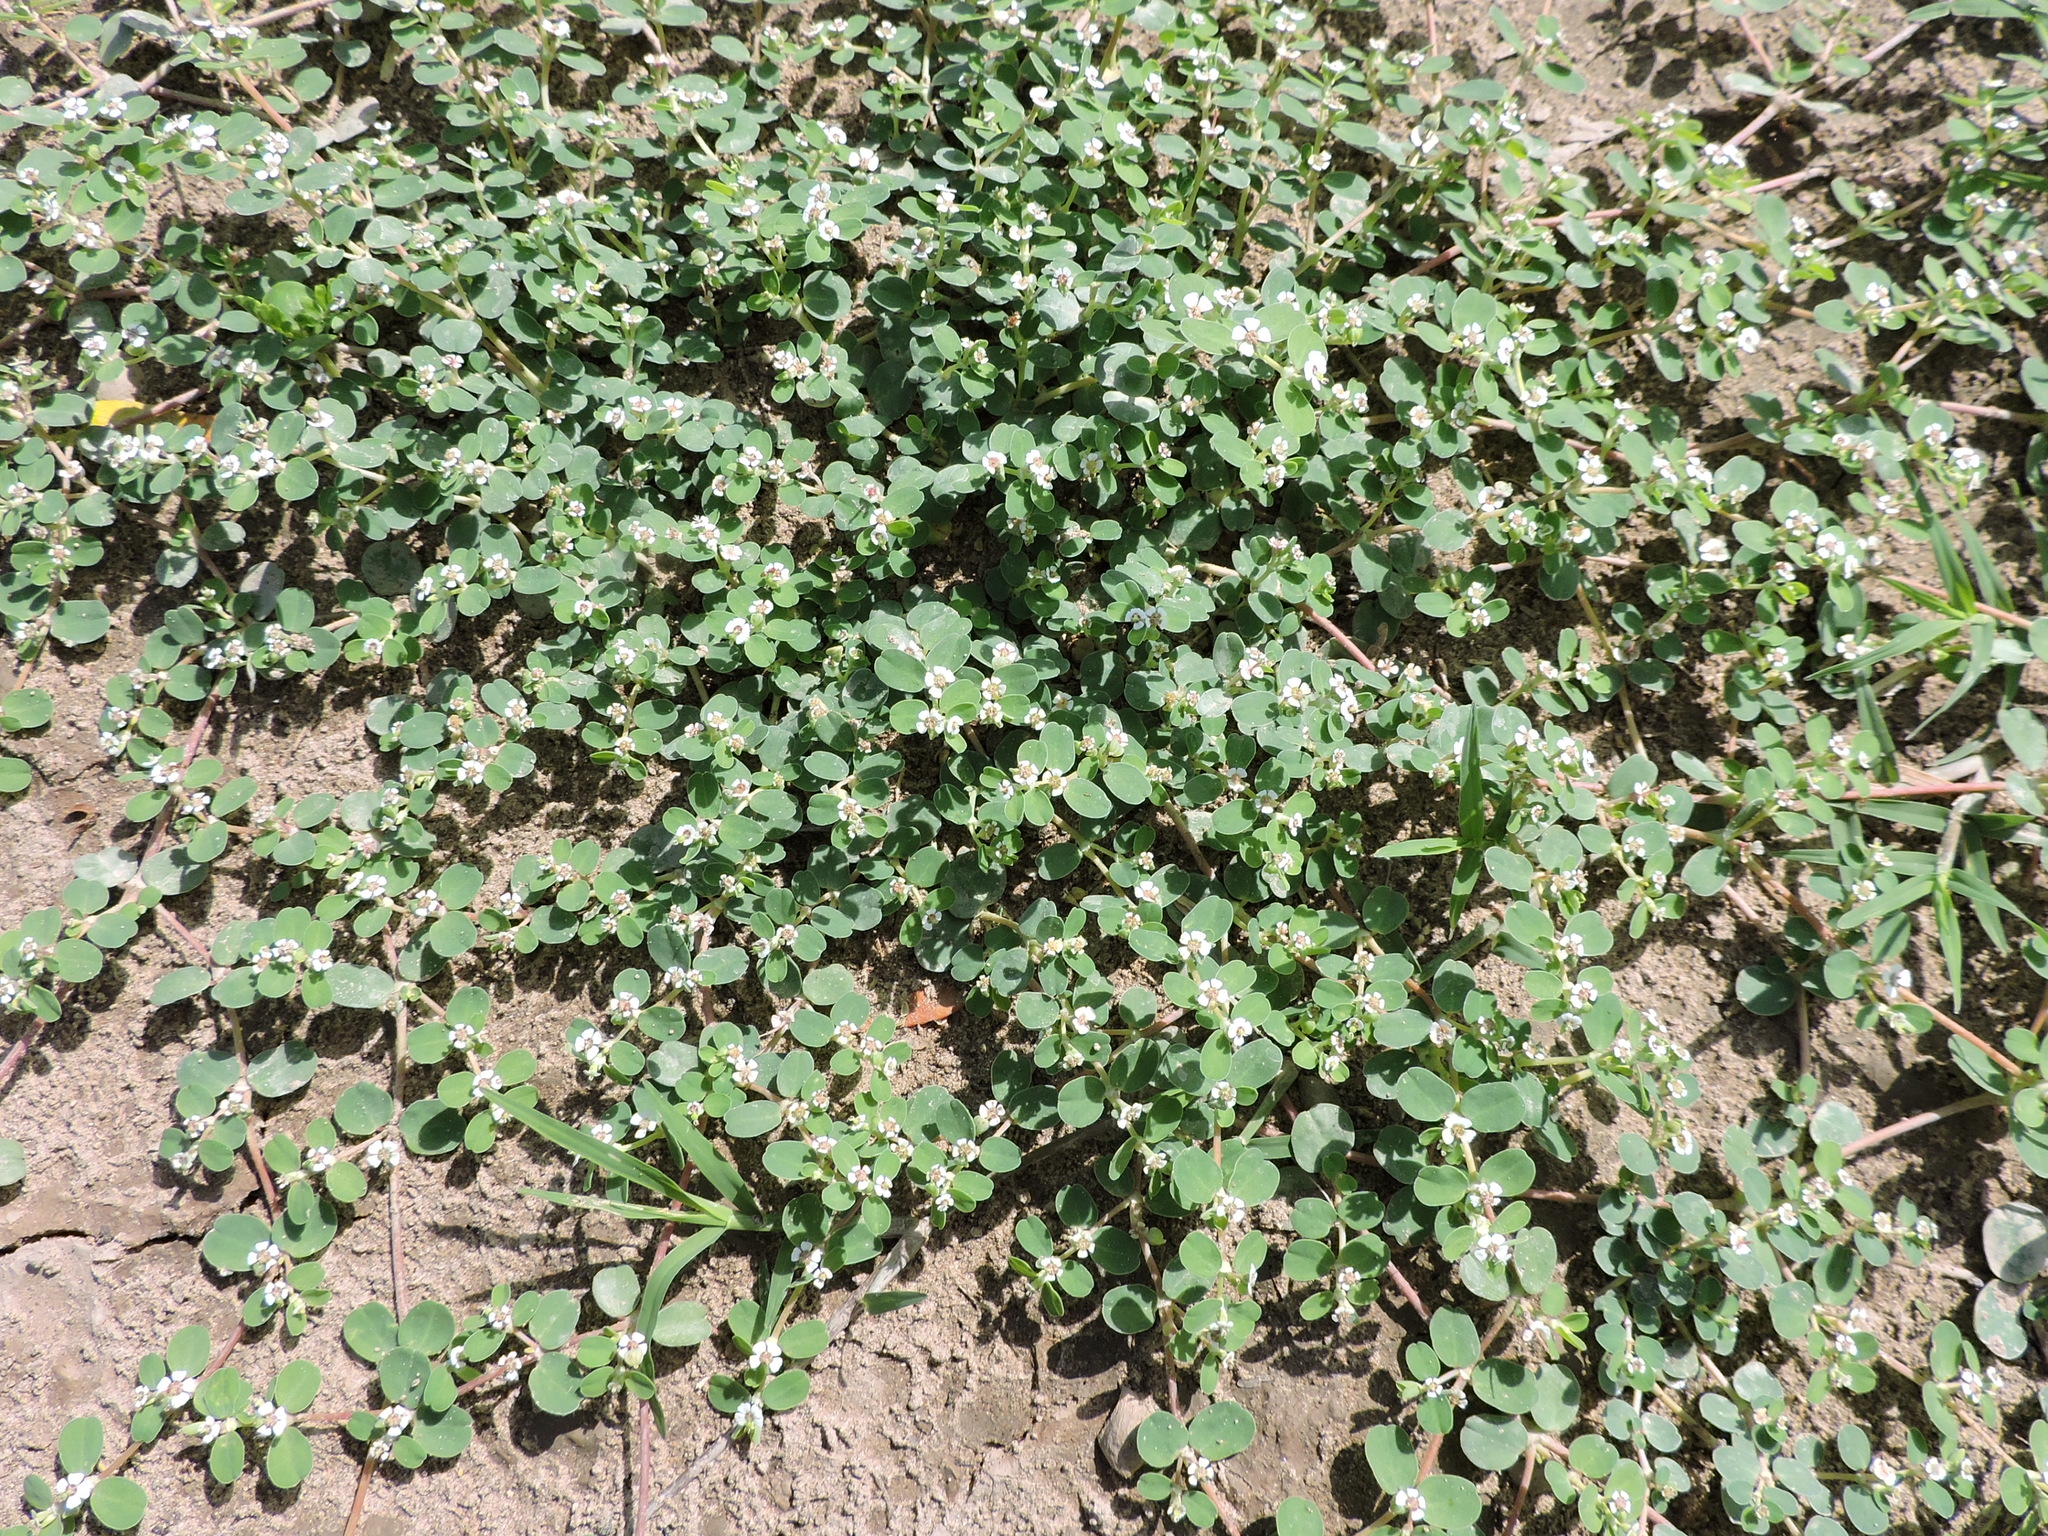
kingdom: Plantae
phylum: Tracheophyta
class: Magnoliopsida
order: Malpighiales
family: Euphorbiaceae
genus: Euphorbia
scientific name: Euphorbia albomarginata
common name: Whitemargin sandmat
